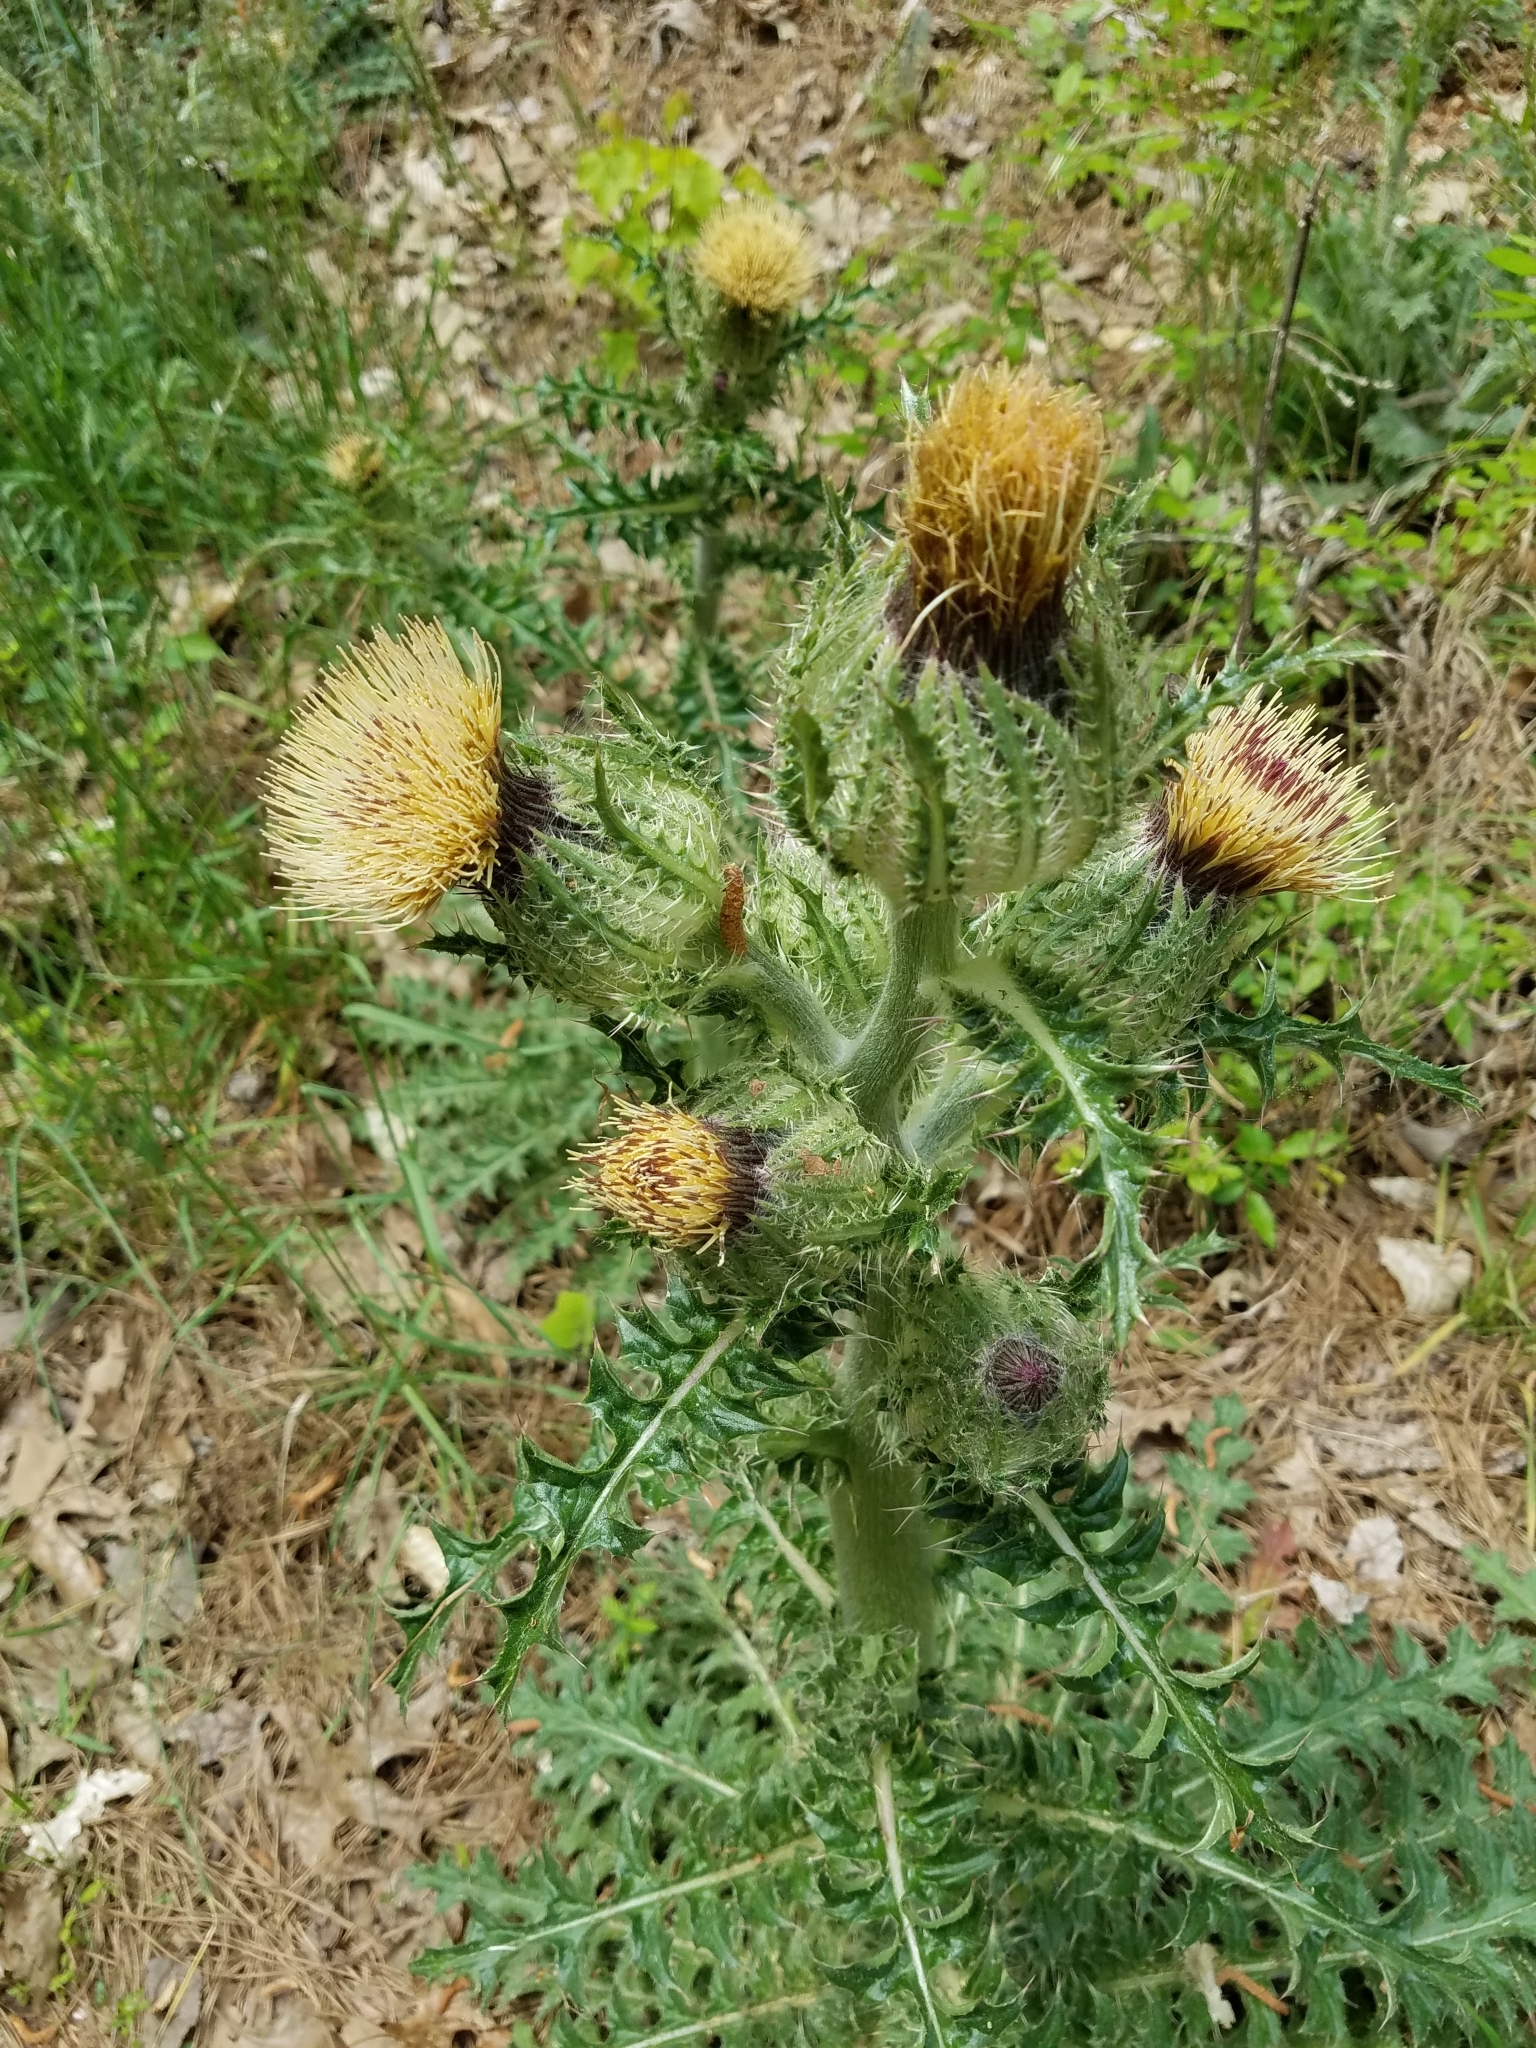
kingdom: Plantae
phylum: Tracheophyta
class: Magnoliopsida
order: Asterales
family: Asteraceae
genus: Cirsium
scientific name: Cirsium horridulum
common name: Bristly thistle
